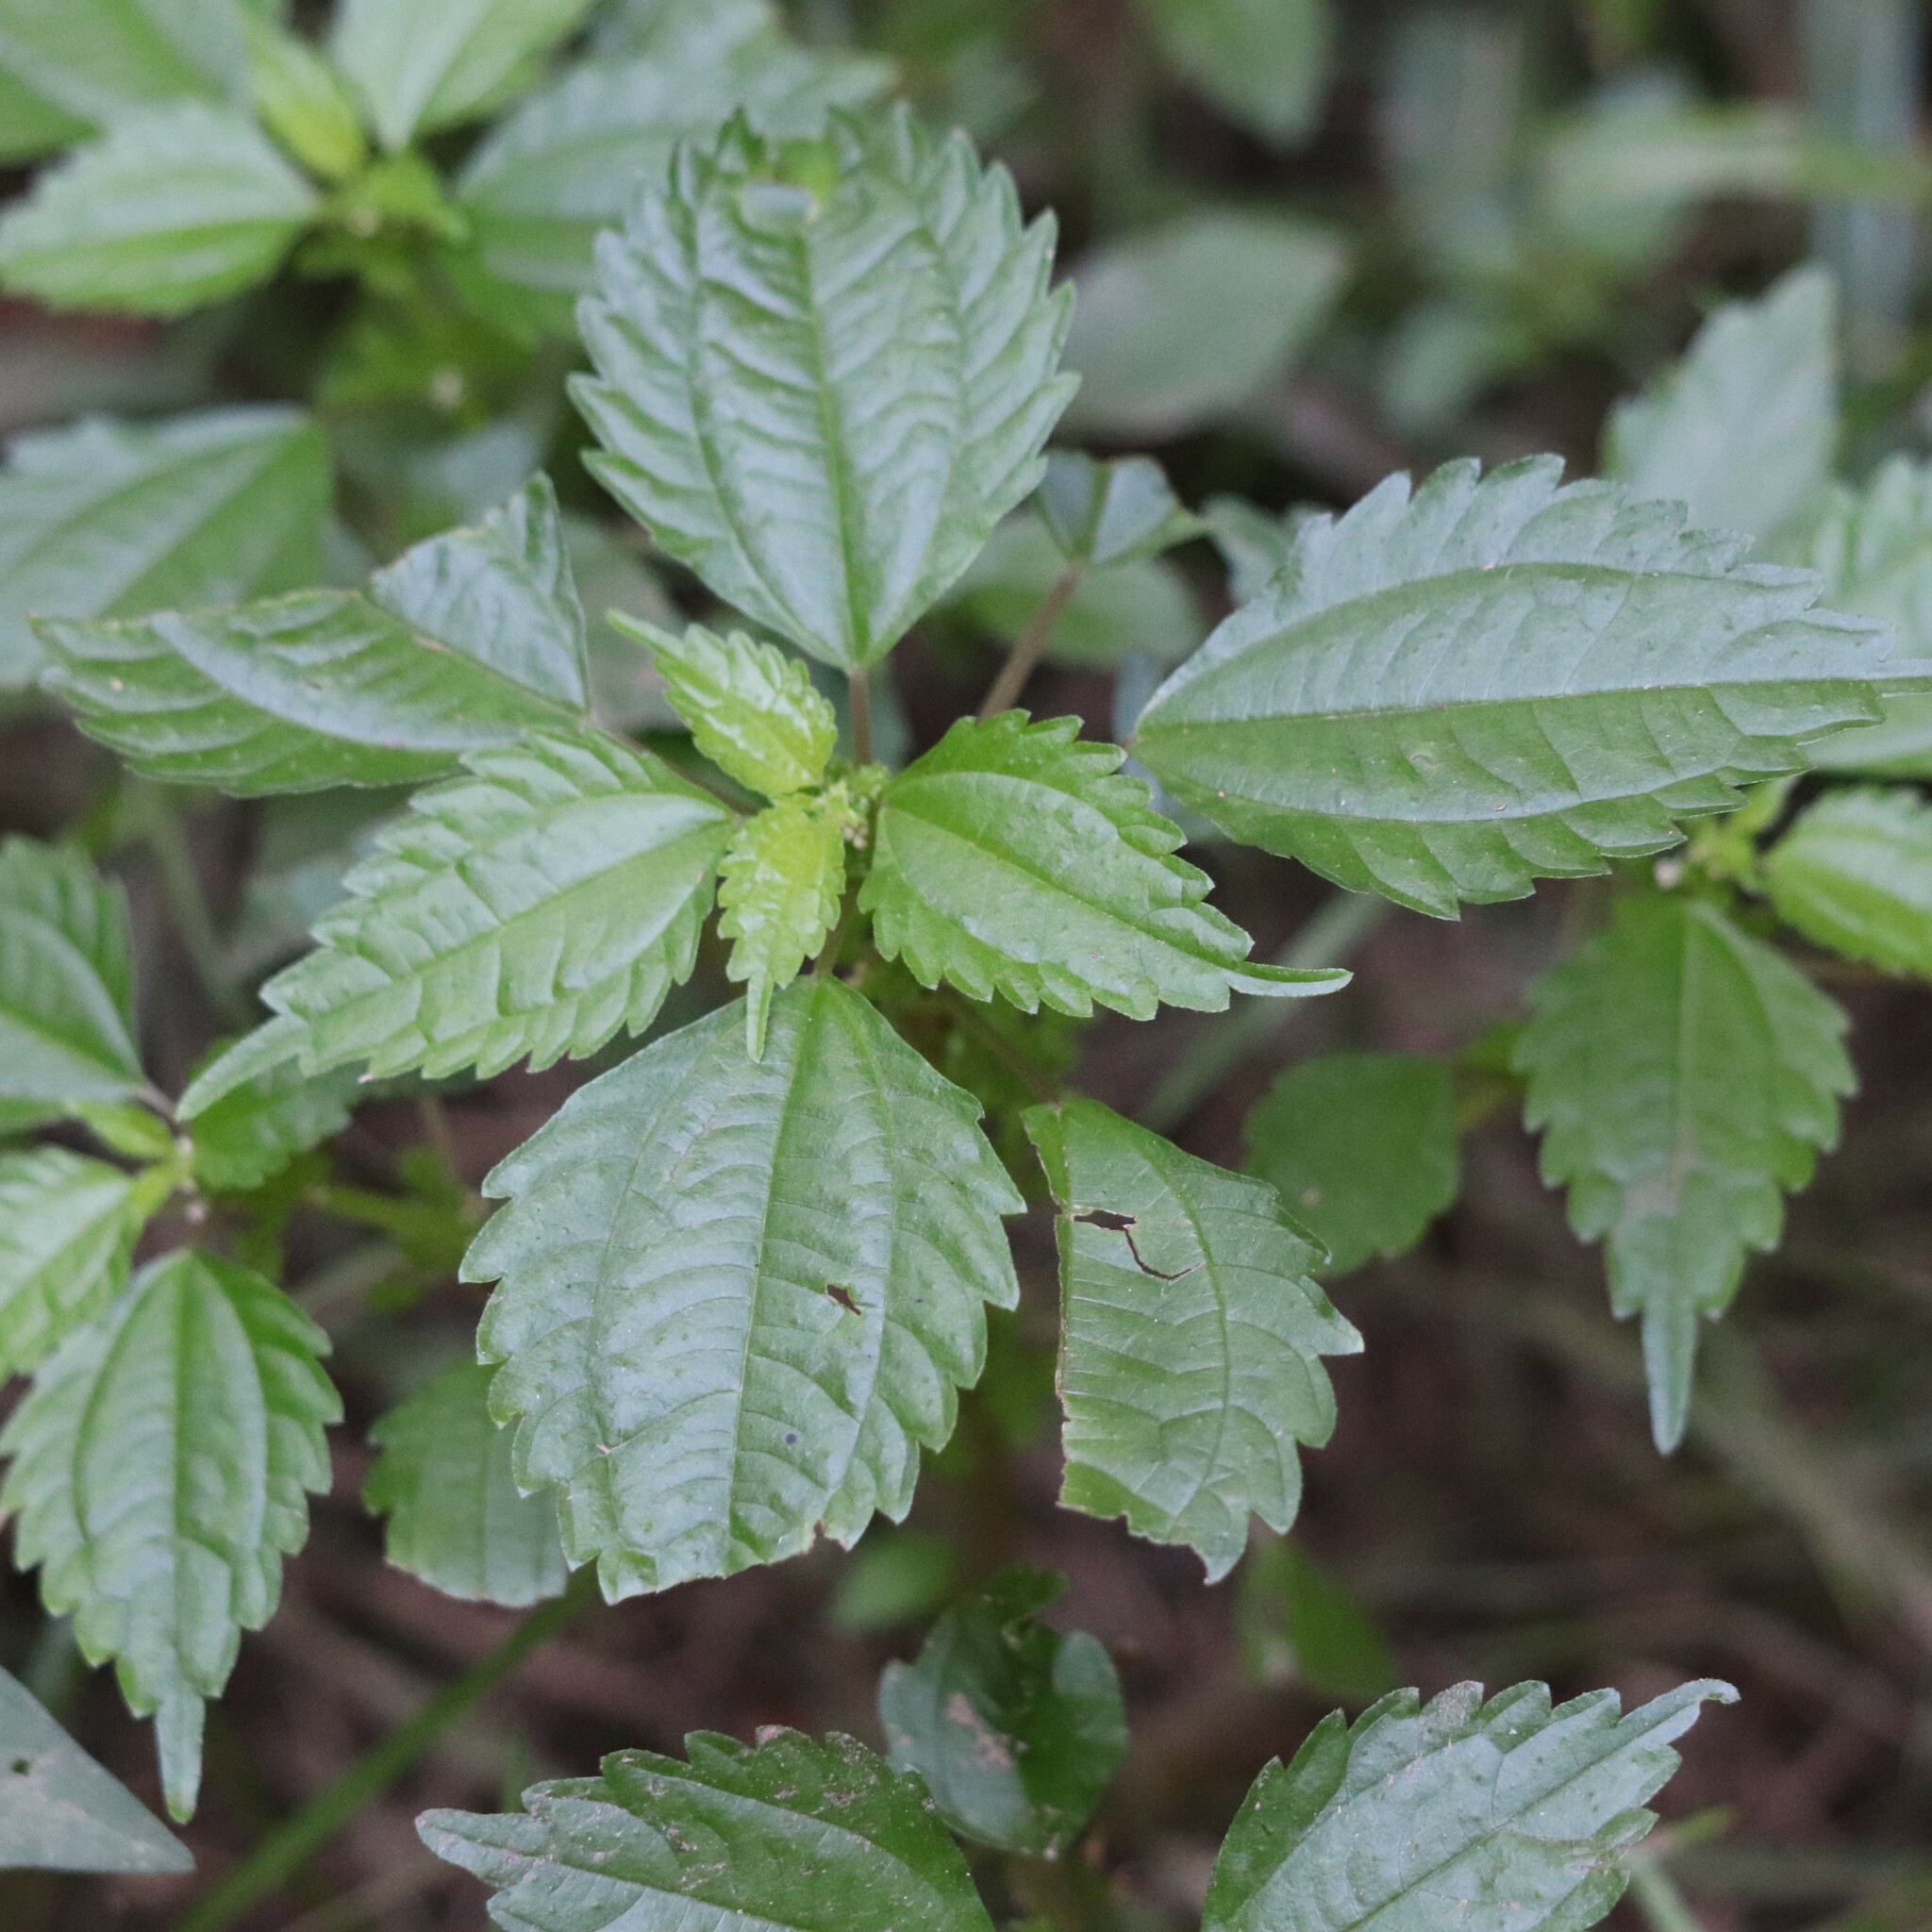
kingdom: Plantae
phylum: Tracheophyta
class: Magnoliopsida
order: Rosales
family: Urticaceae
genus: Pilea
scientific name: Pilea pumila
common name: Clearweed
